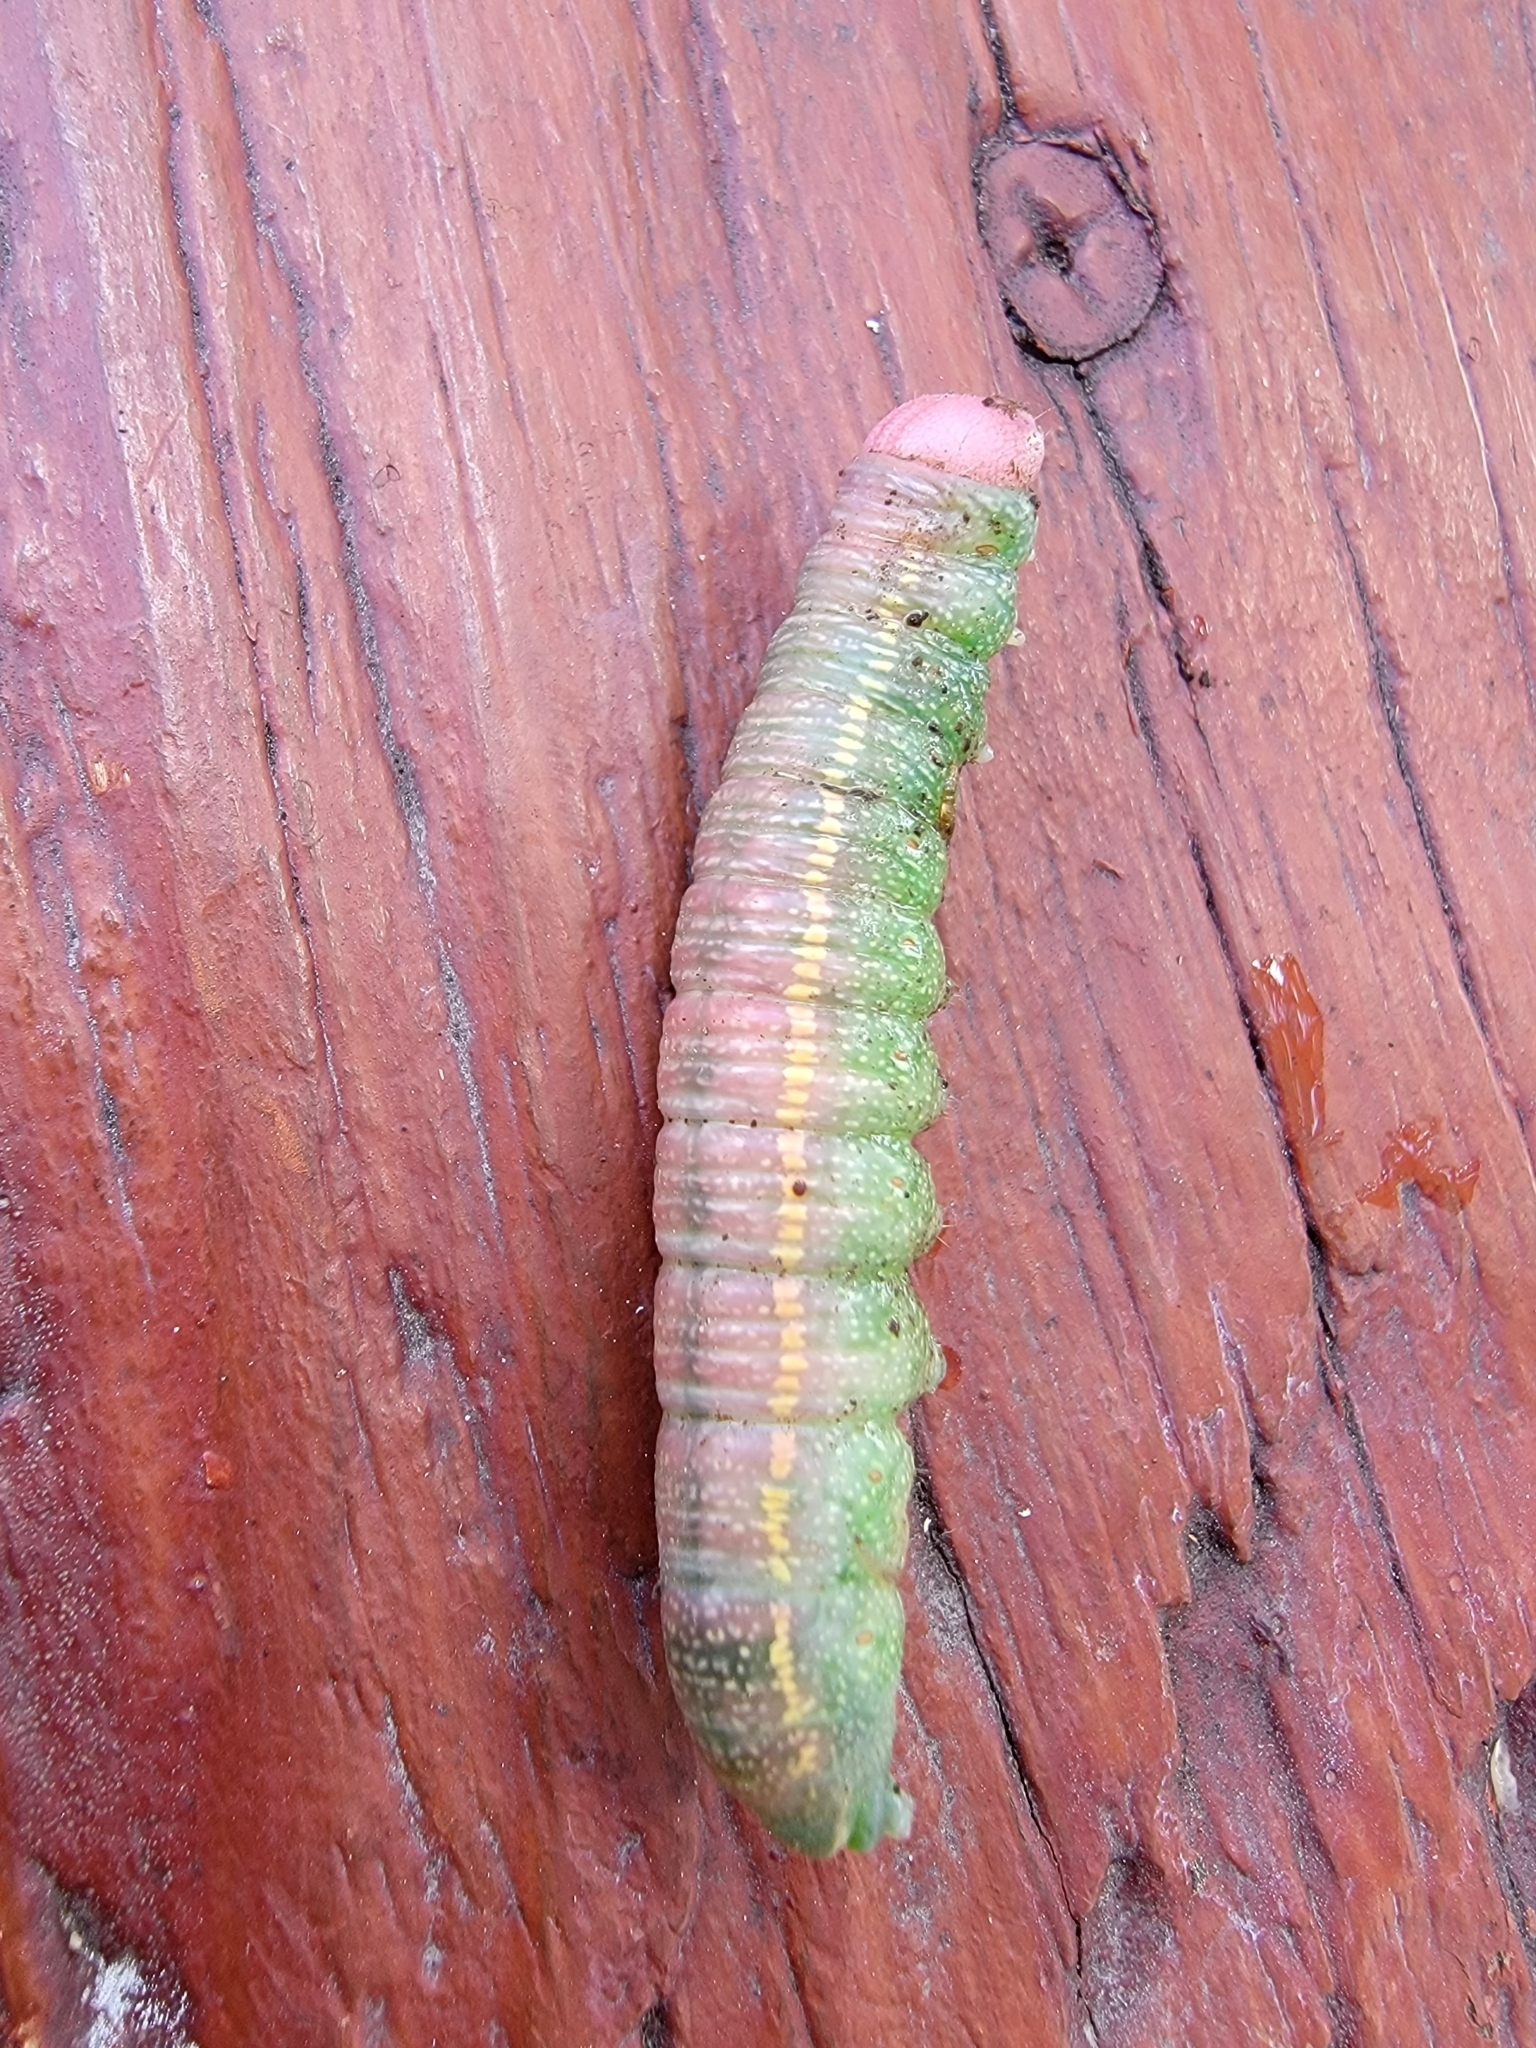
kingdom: Animalia
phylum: Arthropoda
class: Insecta
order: Lepidoptera
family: Notodontidae
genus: Nadata
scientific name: Nadata gibbosa
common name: White-dotted prominent
